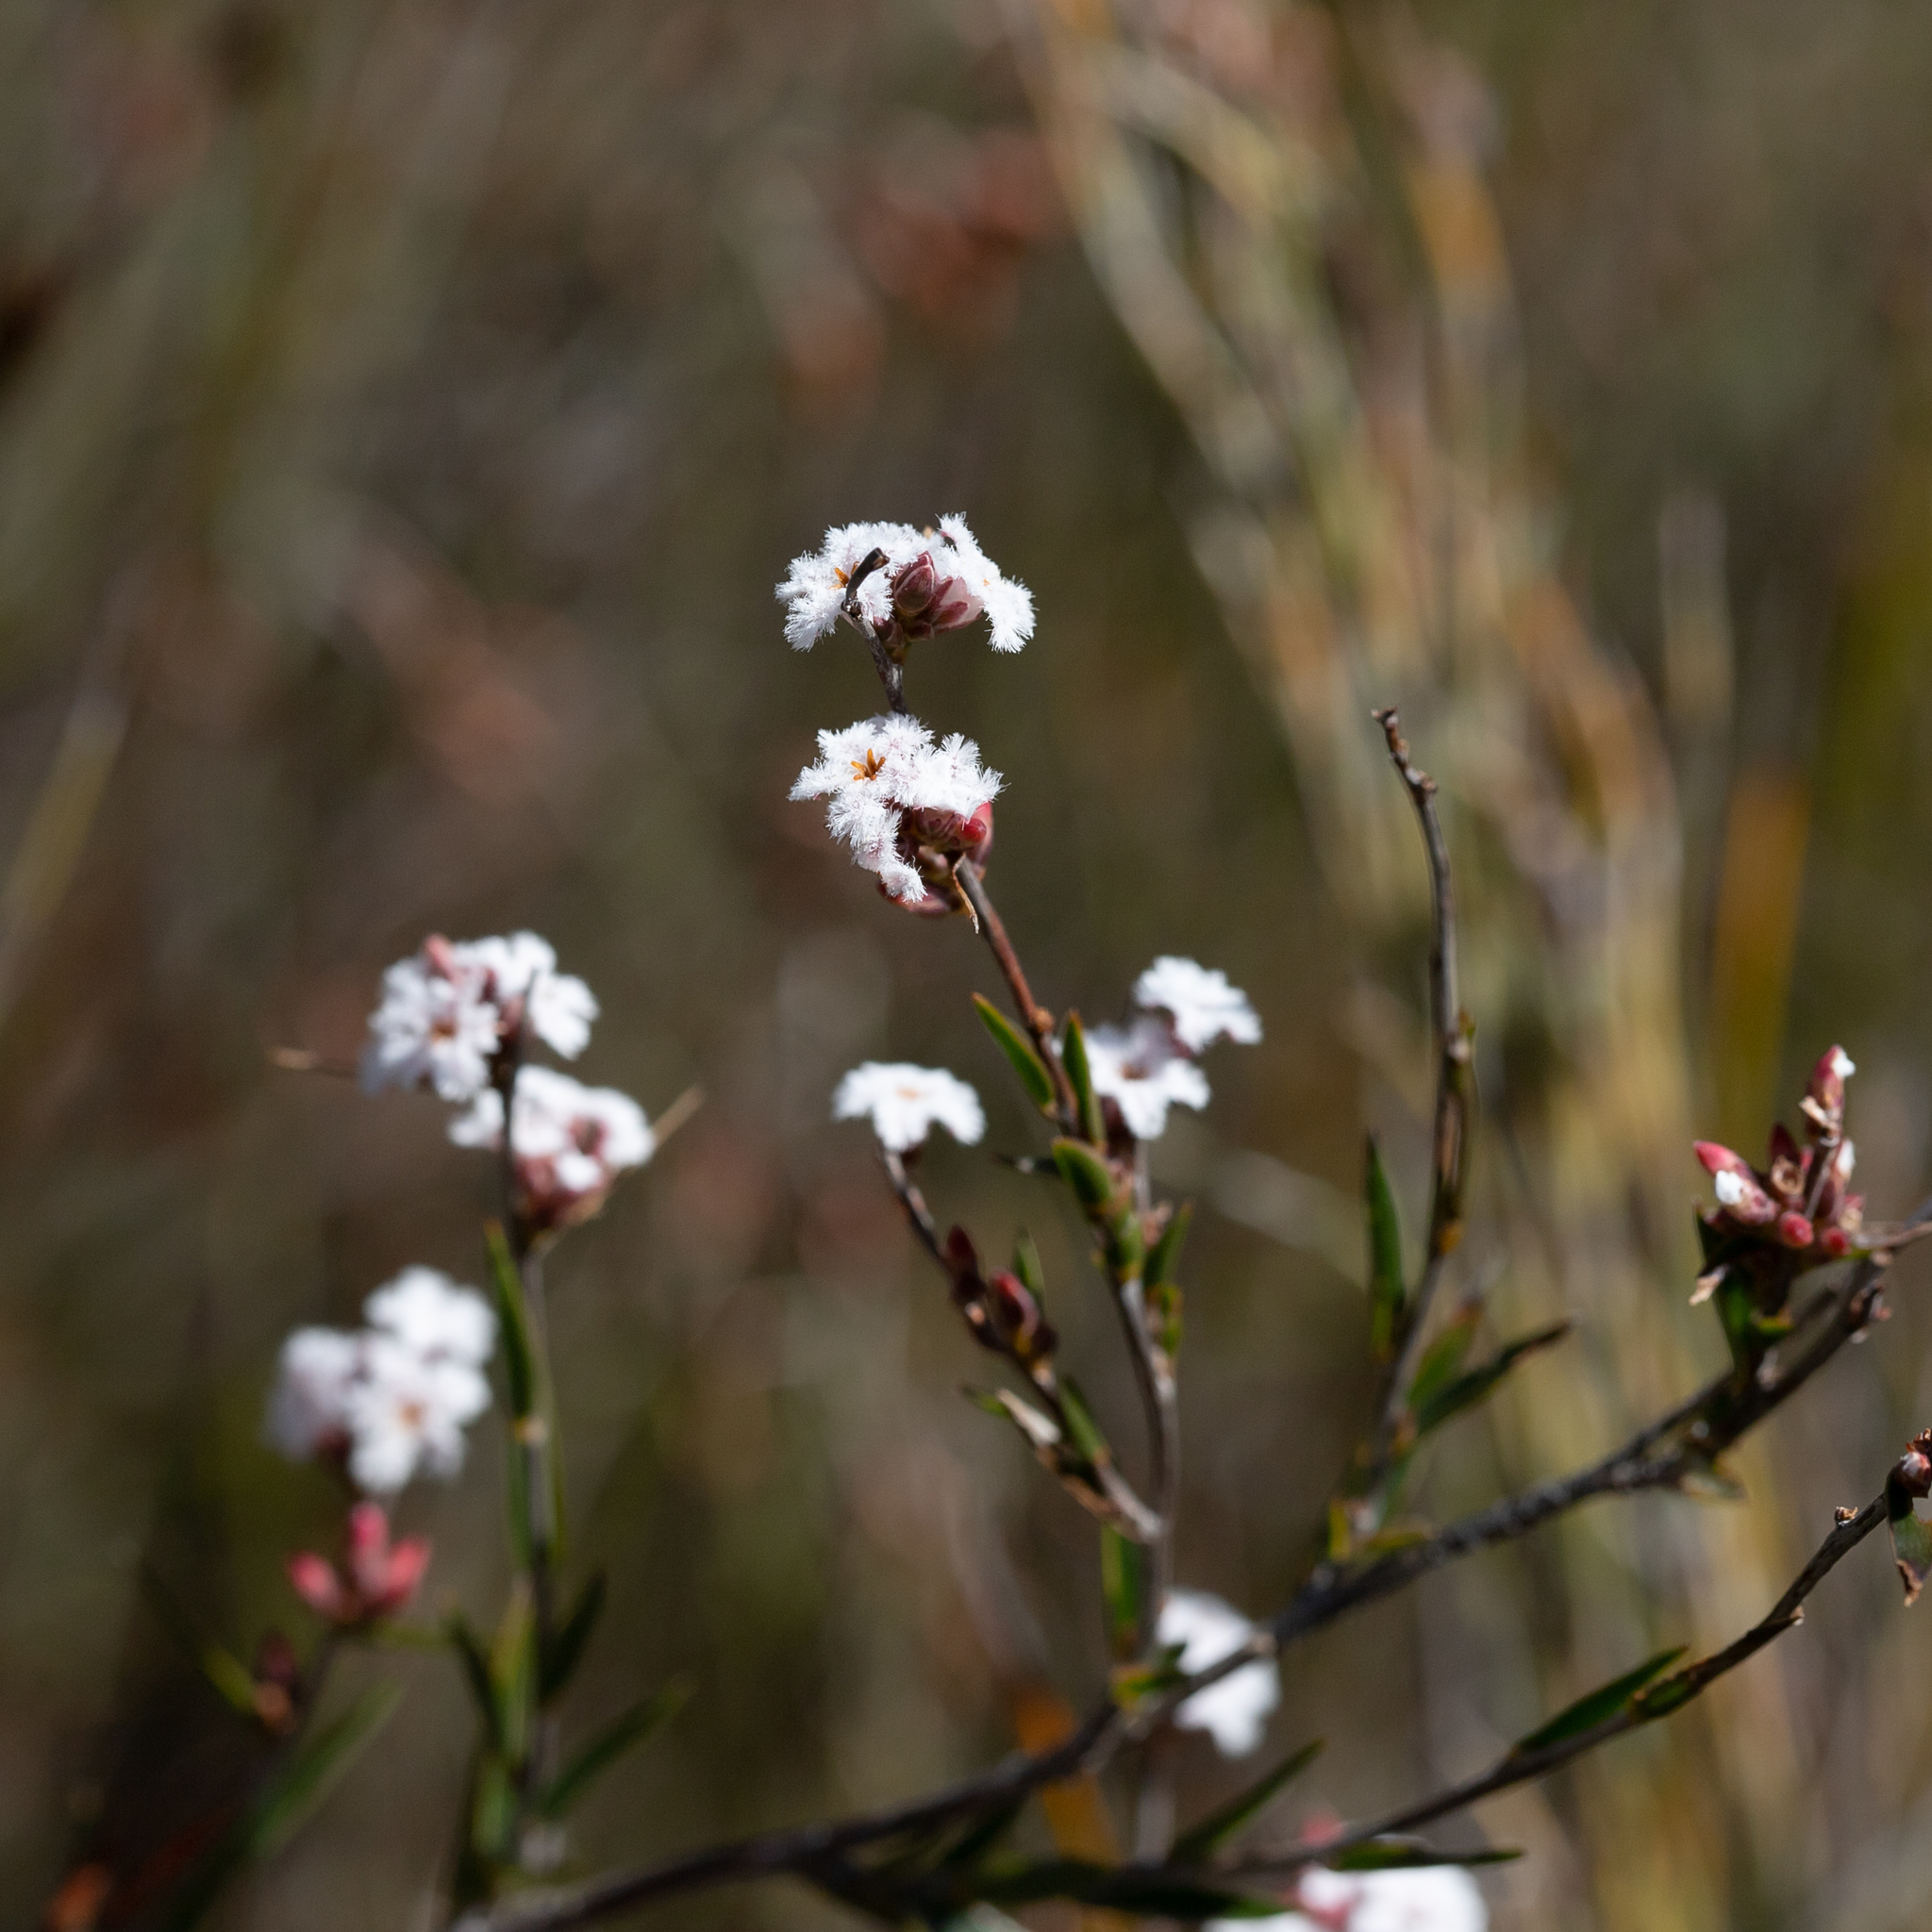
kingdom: Plantae
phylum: Tracheophyta
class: Magnoliopsida
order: Ericales
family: Ericaceae
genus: Leucopogon
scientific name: Leucopogon virgatus
